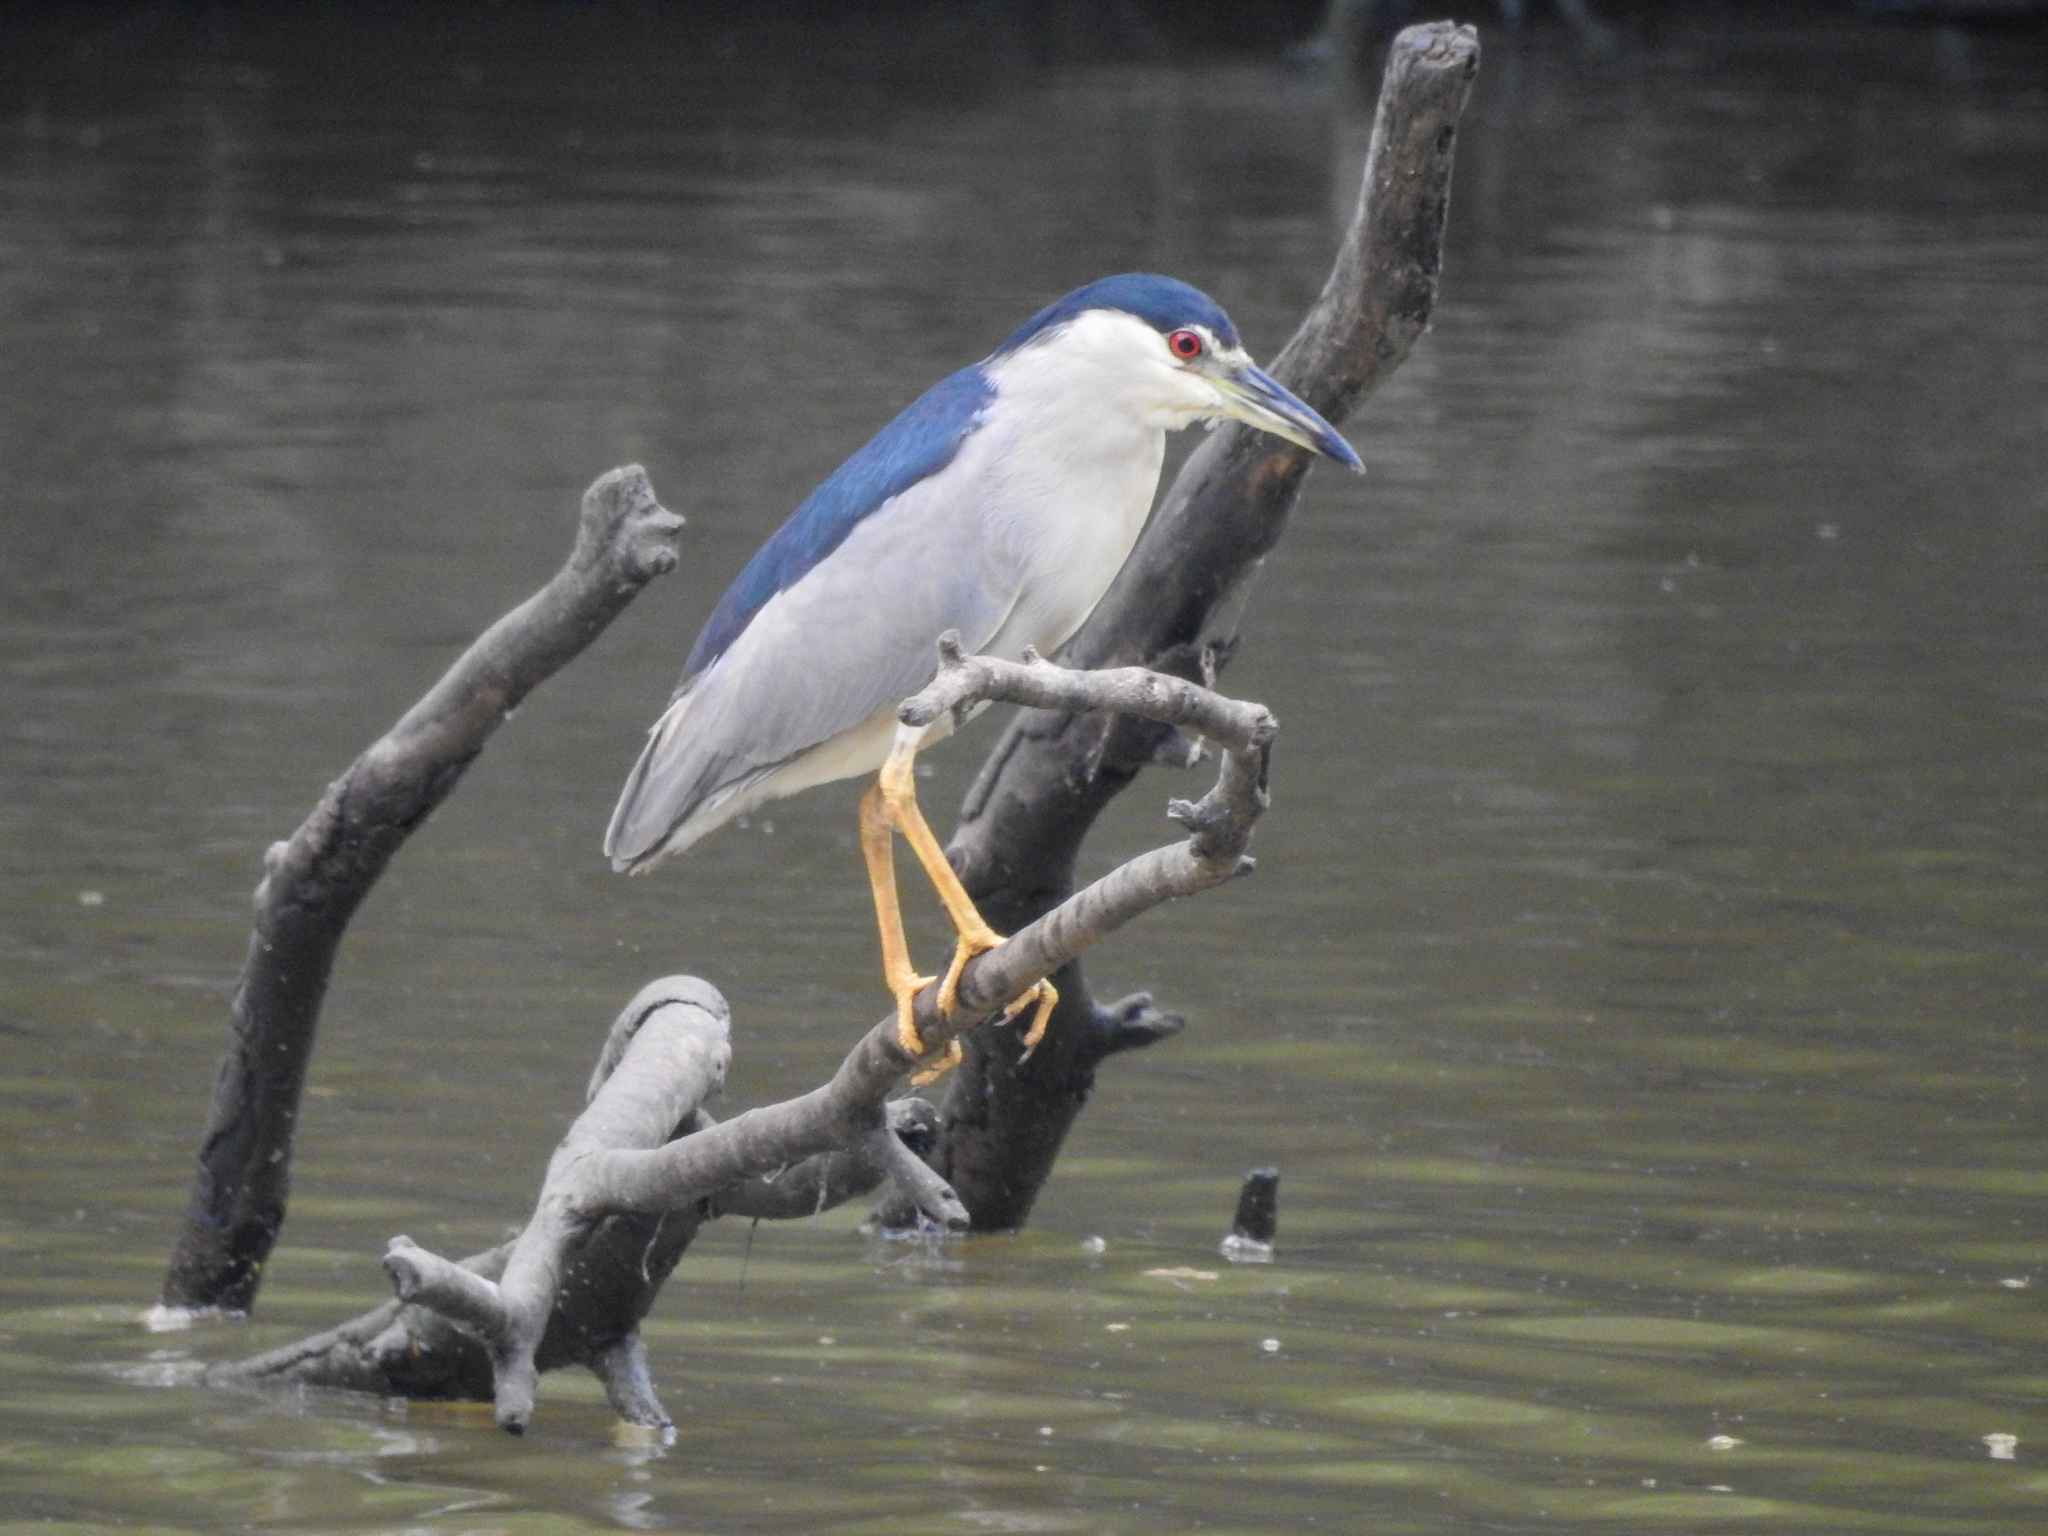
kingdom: Animalia
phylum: Chordata
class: Aves
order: Pelecaniformes
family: Ardeidae
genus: Nycticorax
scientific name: Nycticorax nycticorax
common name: Black-crowned night heron
